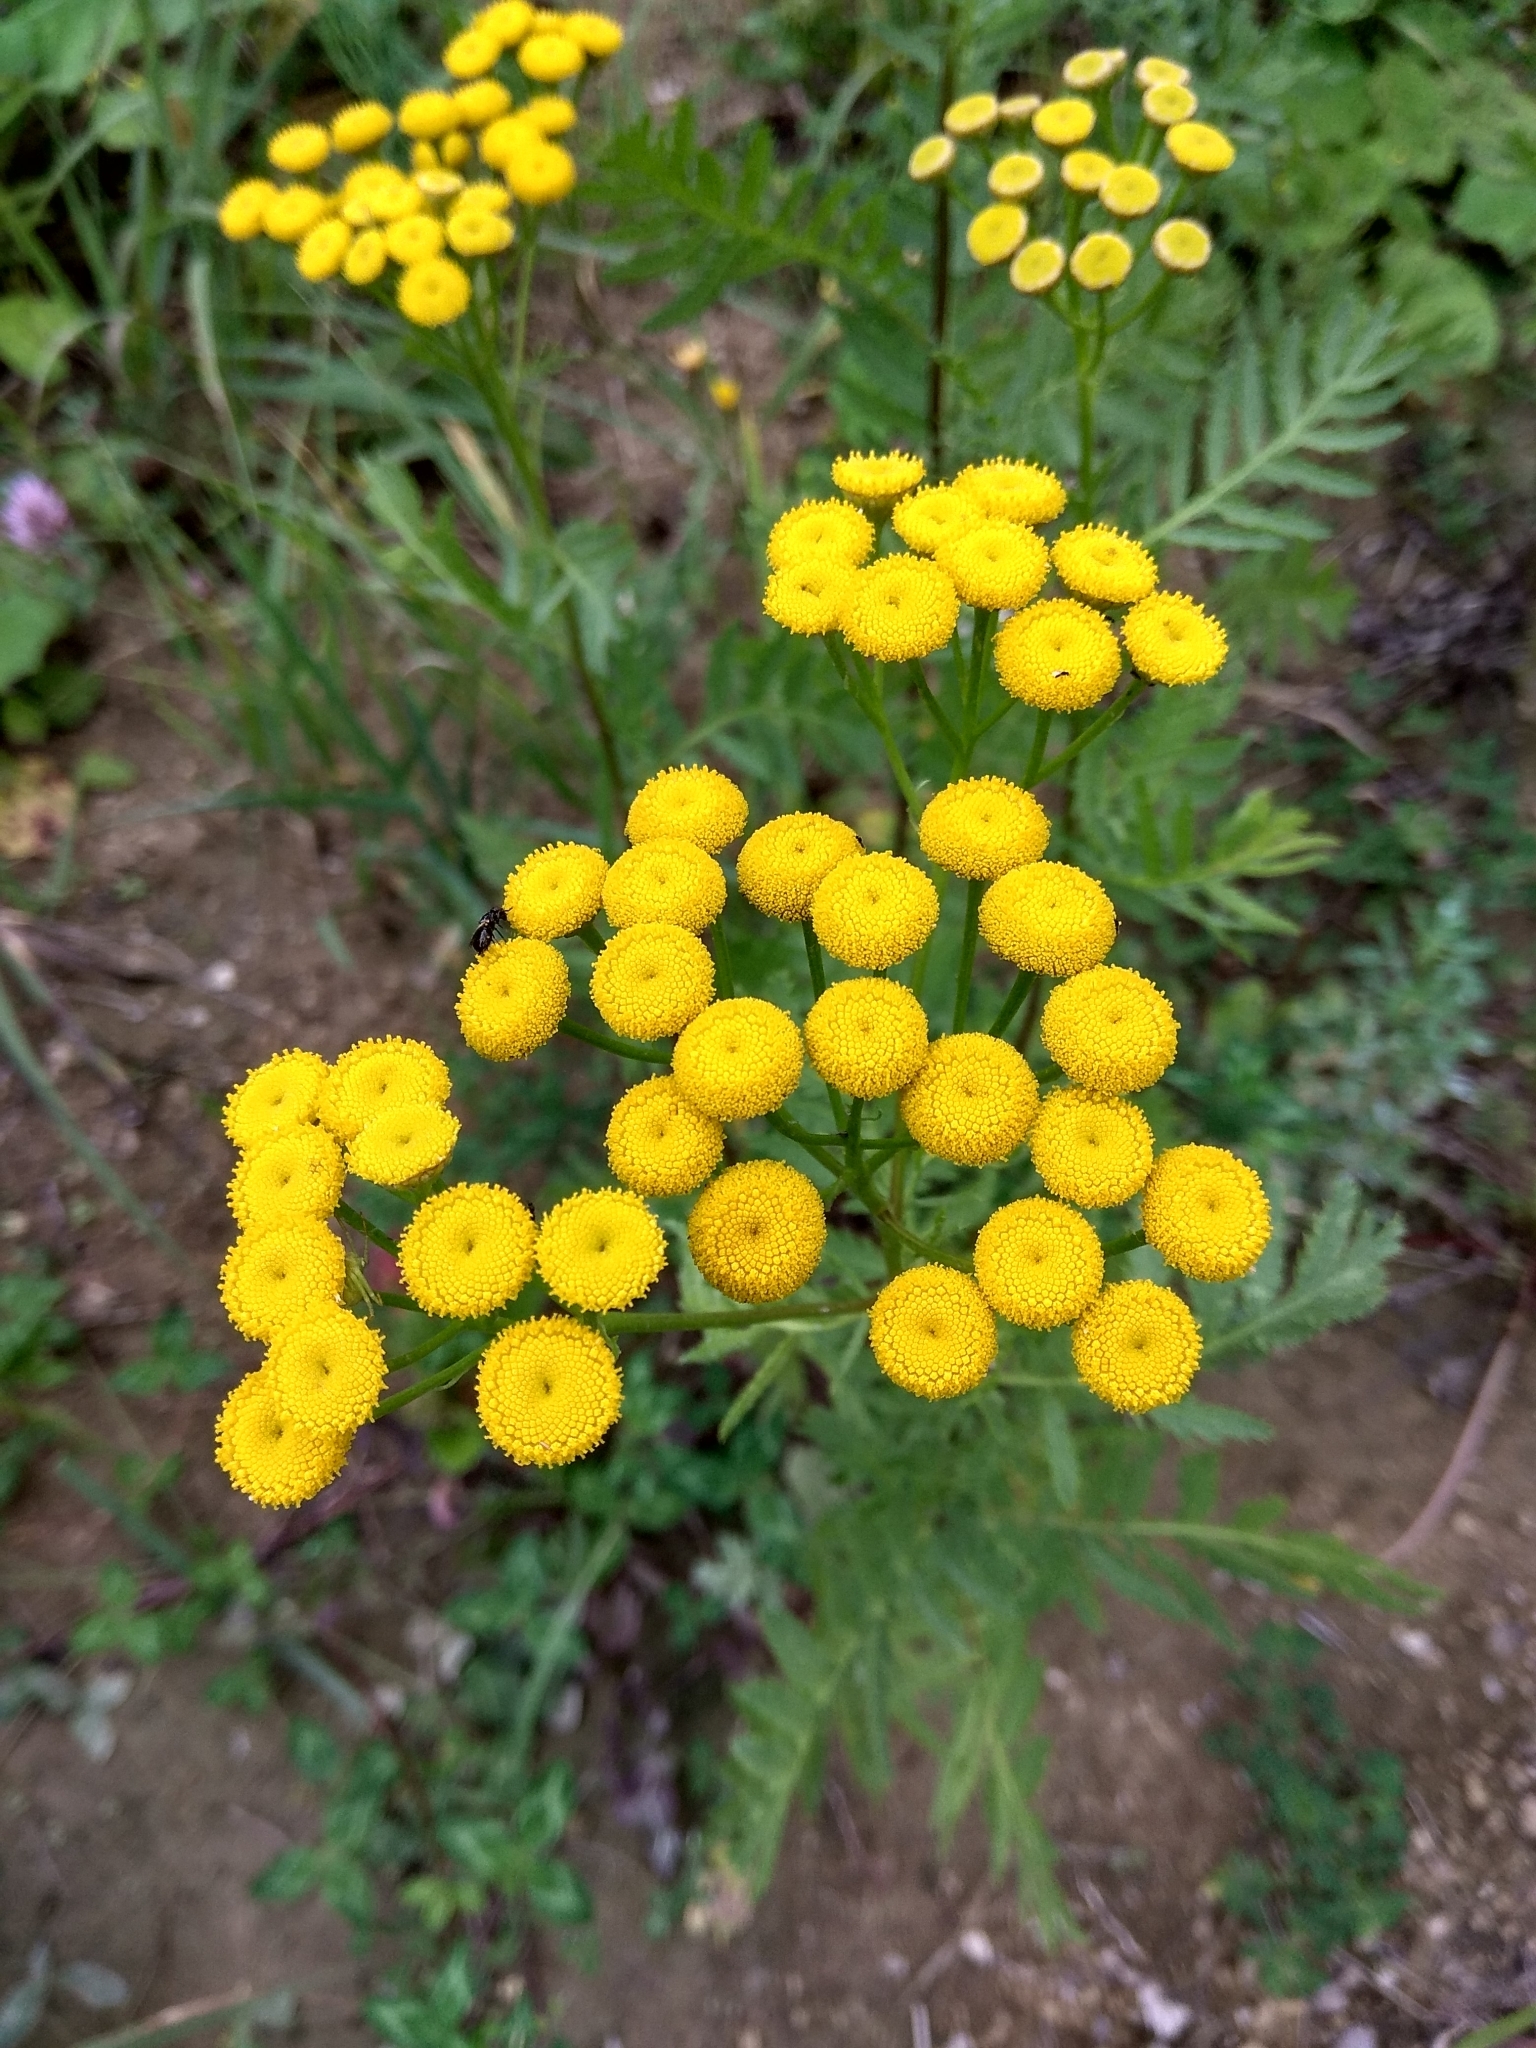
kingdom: Plantae
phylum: Tracheophyta
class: Magnoliopsida
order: Asterales
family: Asteraceae
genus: Tanacetum
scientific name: Tanacetum vulgare
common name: Common tansy
